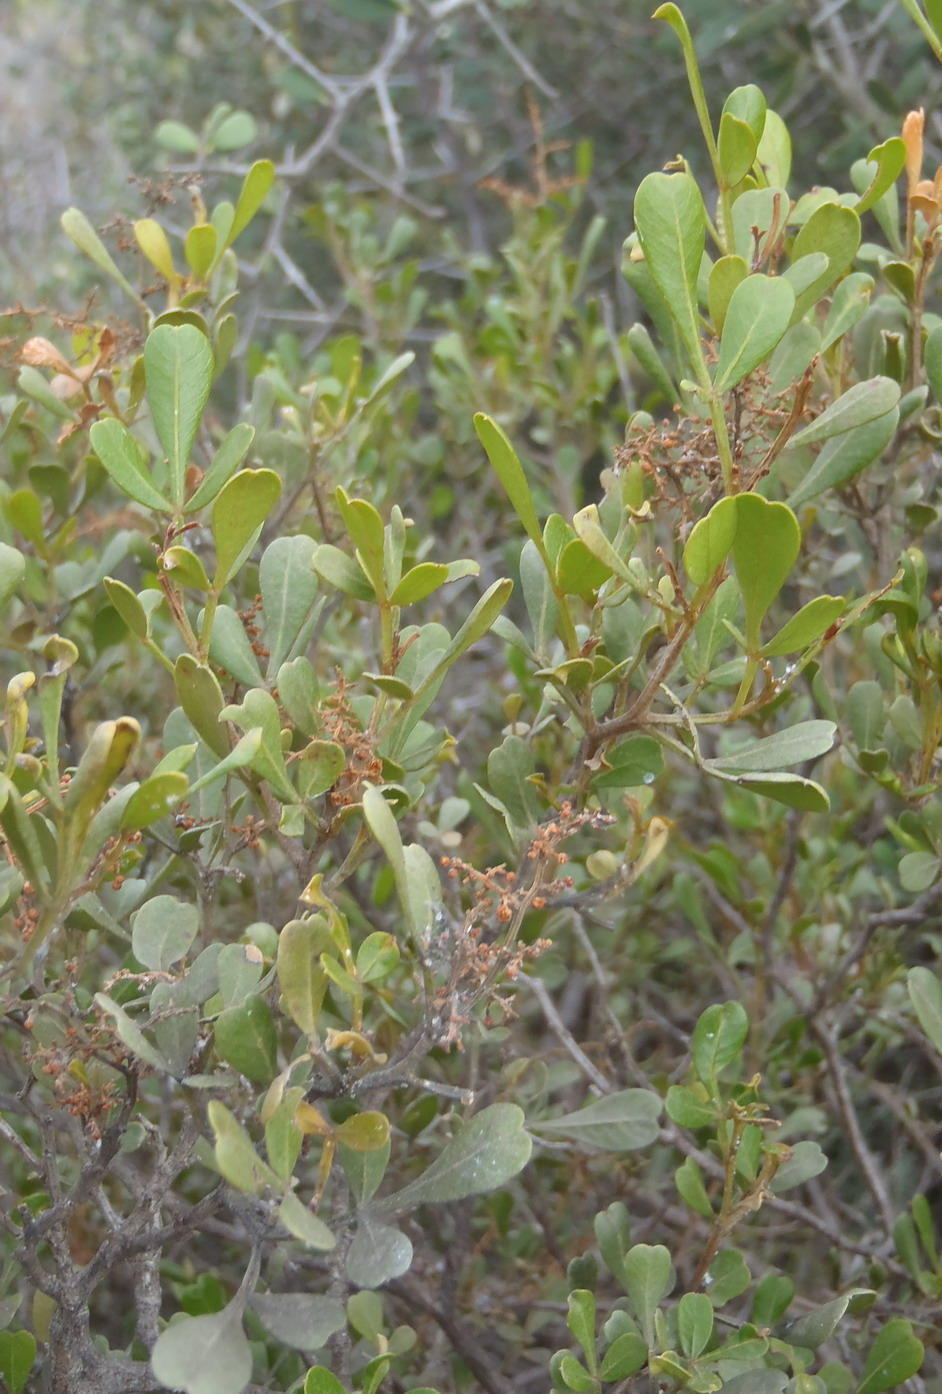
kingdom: Plantae
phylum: Tracheophyta
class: Magnoliopsida
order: Sapindales
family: Anacardiaceae
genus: Searsia
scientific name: Searsia pallens
